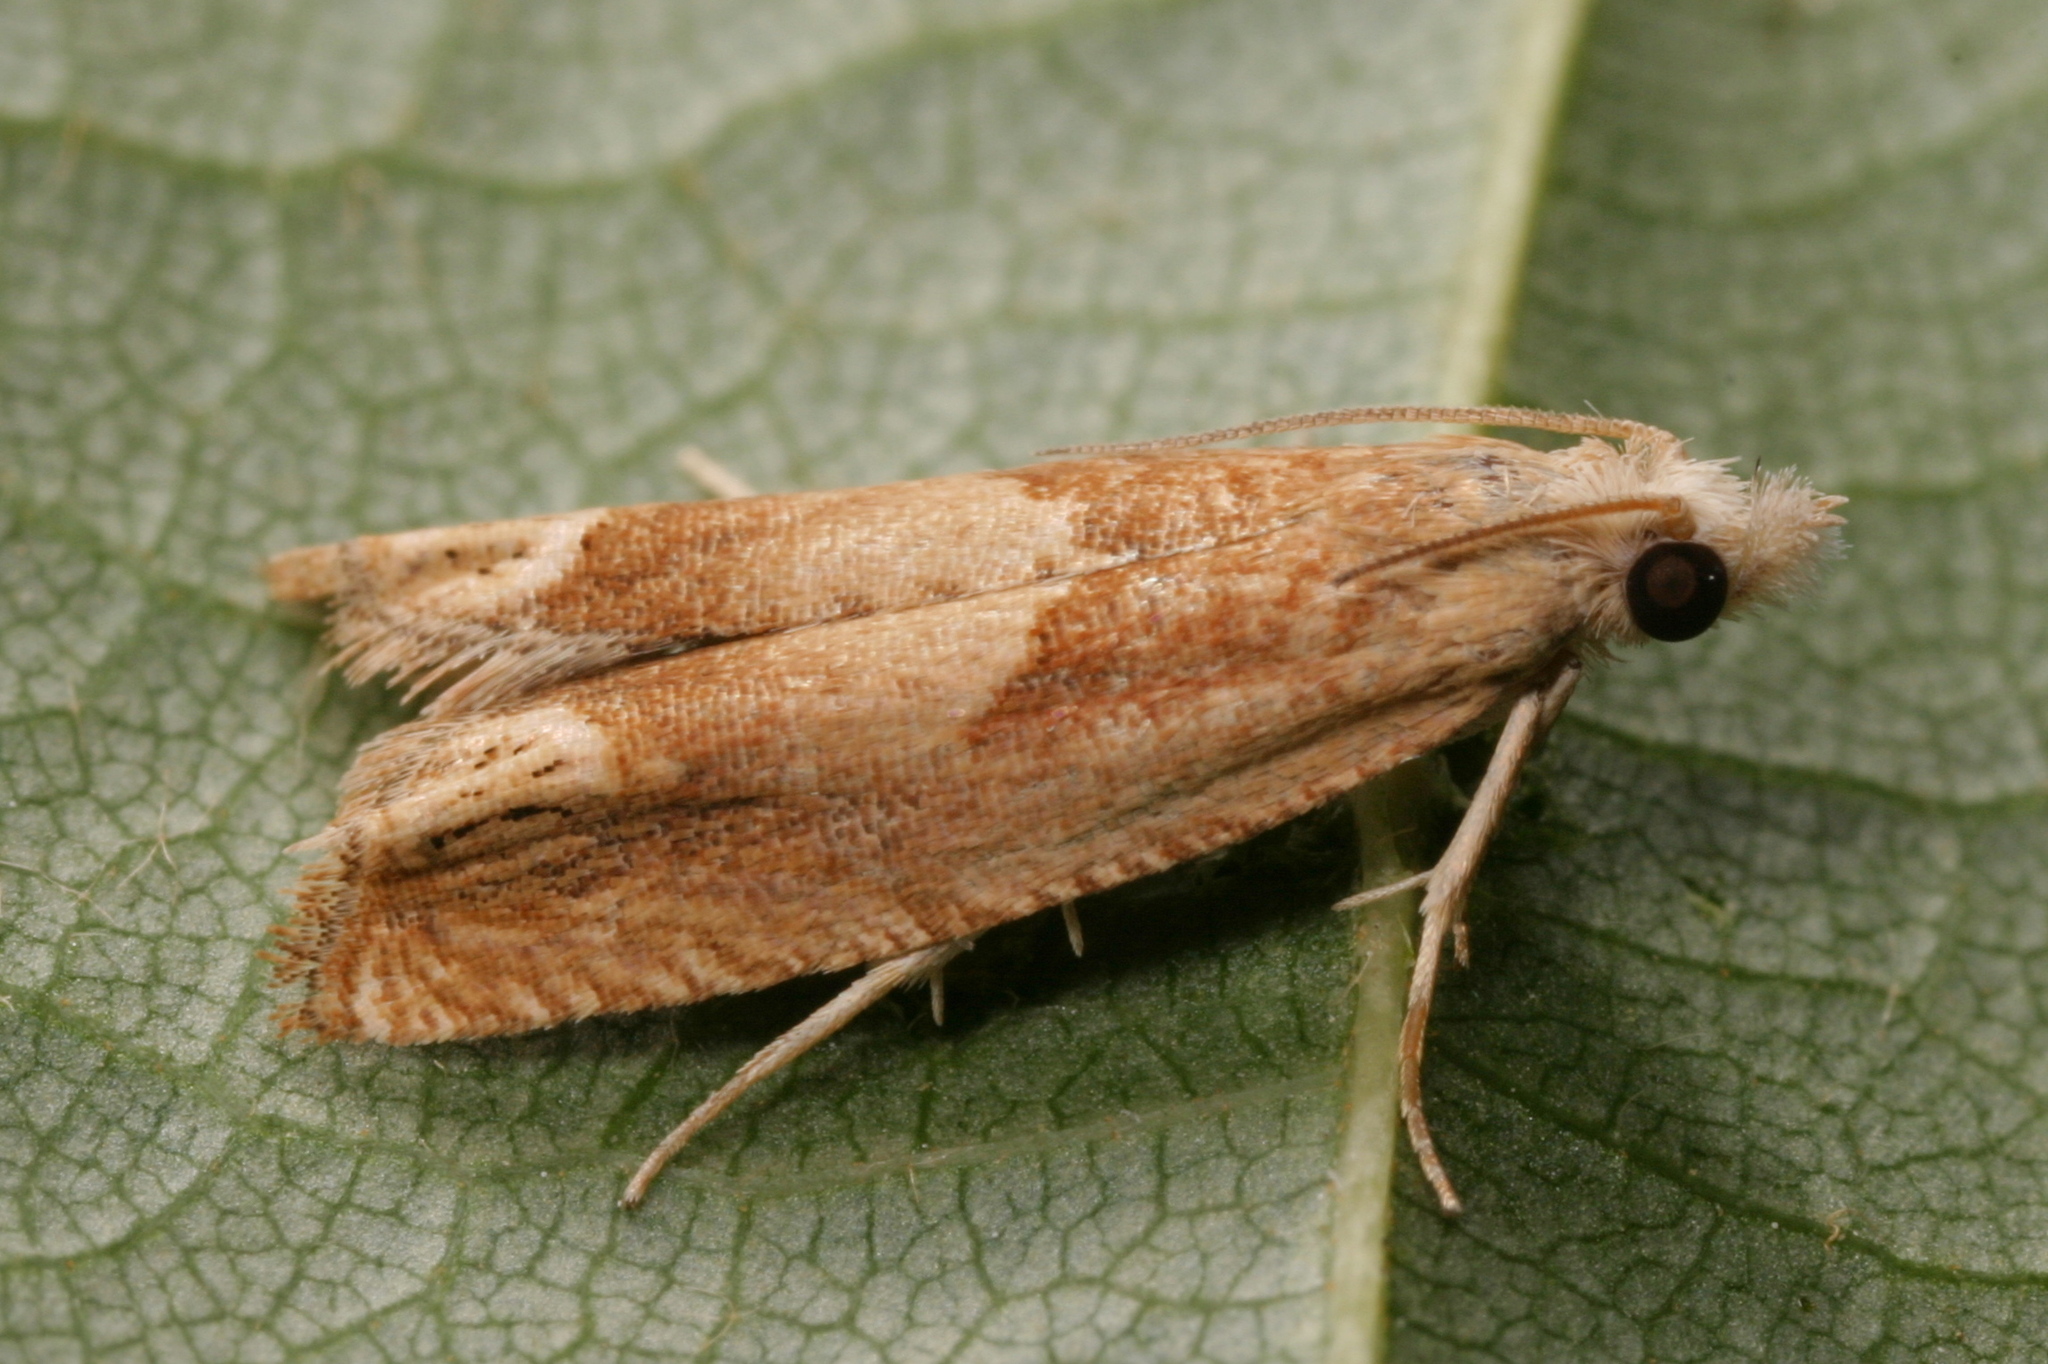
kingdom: Animalia
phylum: Arthropoda
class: Insecta
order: Lepidoptera
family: Tortricidae
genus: Eucosma
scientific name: Eucosma conterminana
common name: Pale lettuce bell
